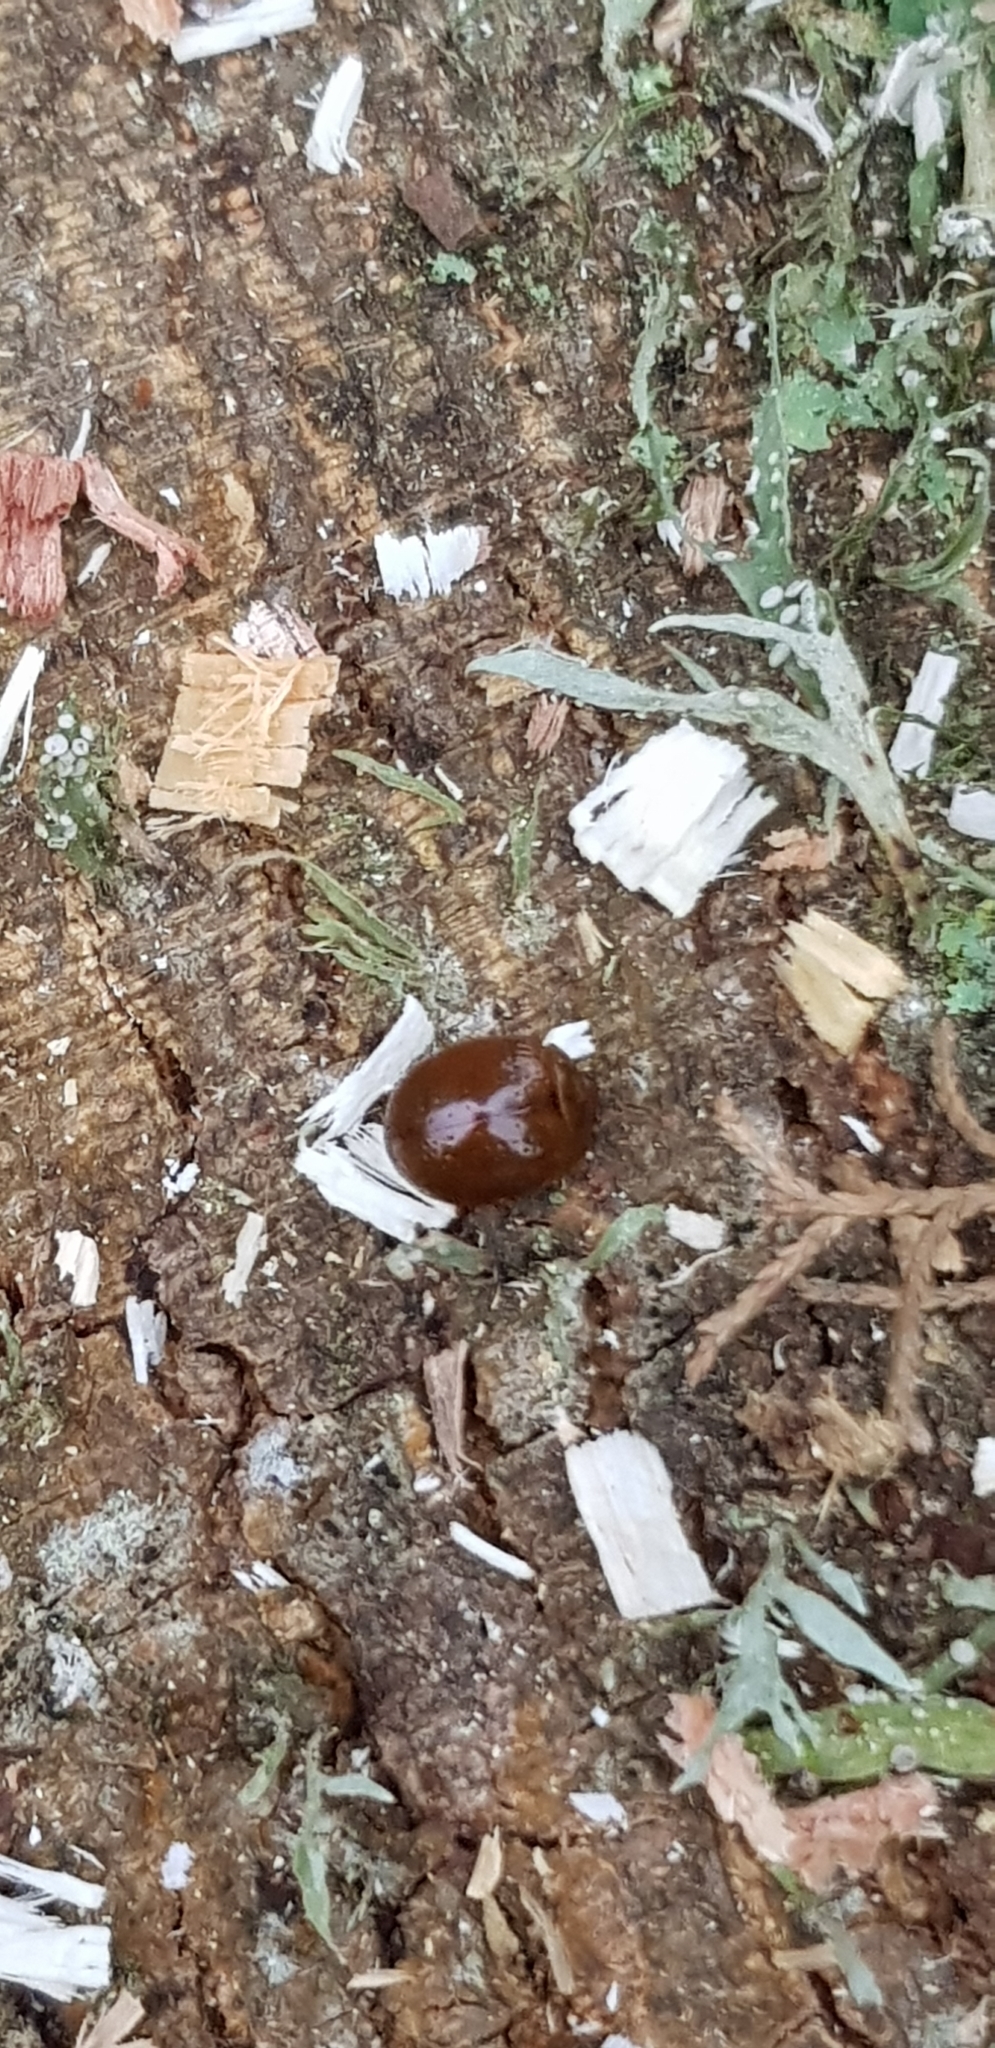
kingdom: Animalia
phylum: Arthropoda
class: Insecta
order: Coleoptera
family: Chrysomelidae
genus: Dicranosterna
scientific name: Dicranosterna
